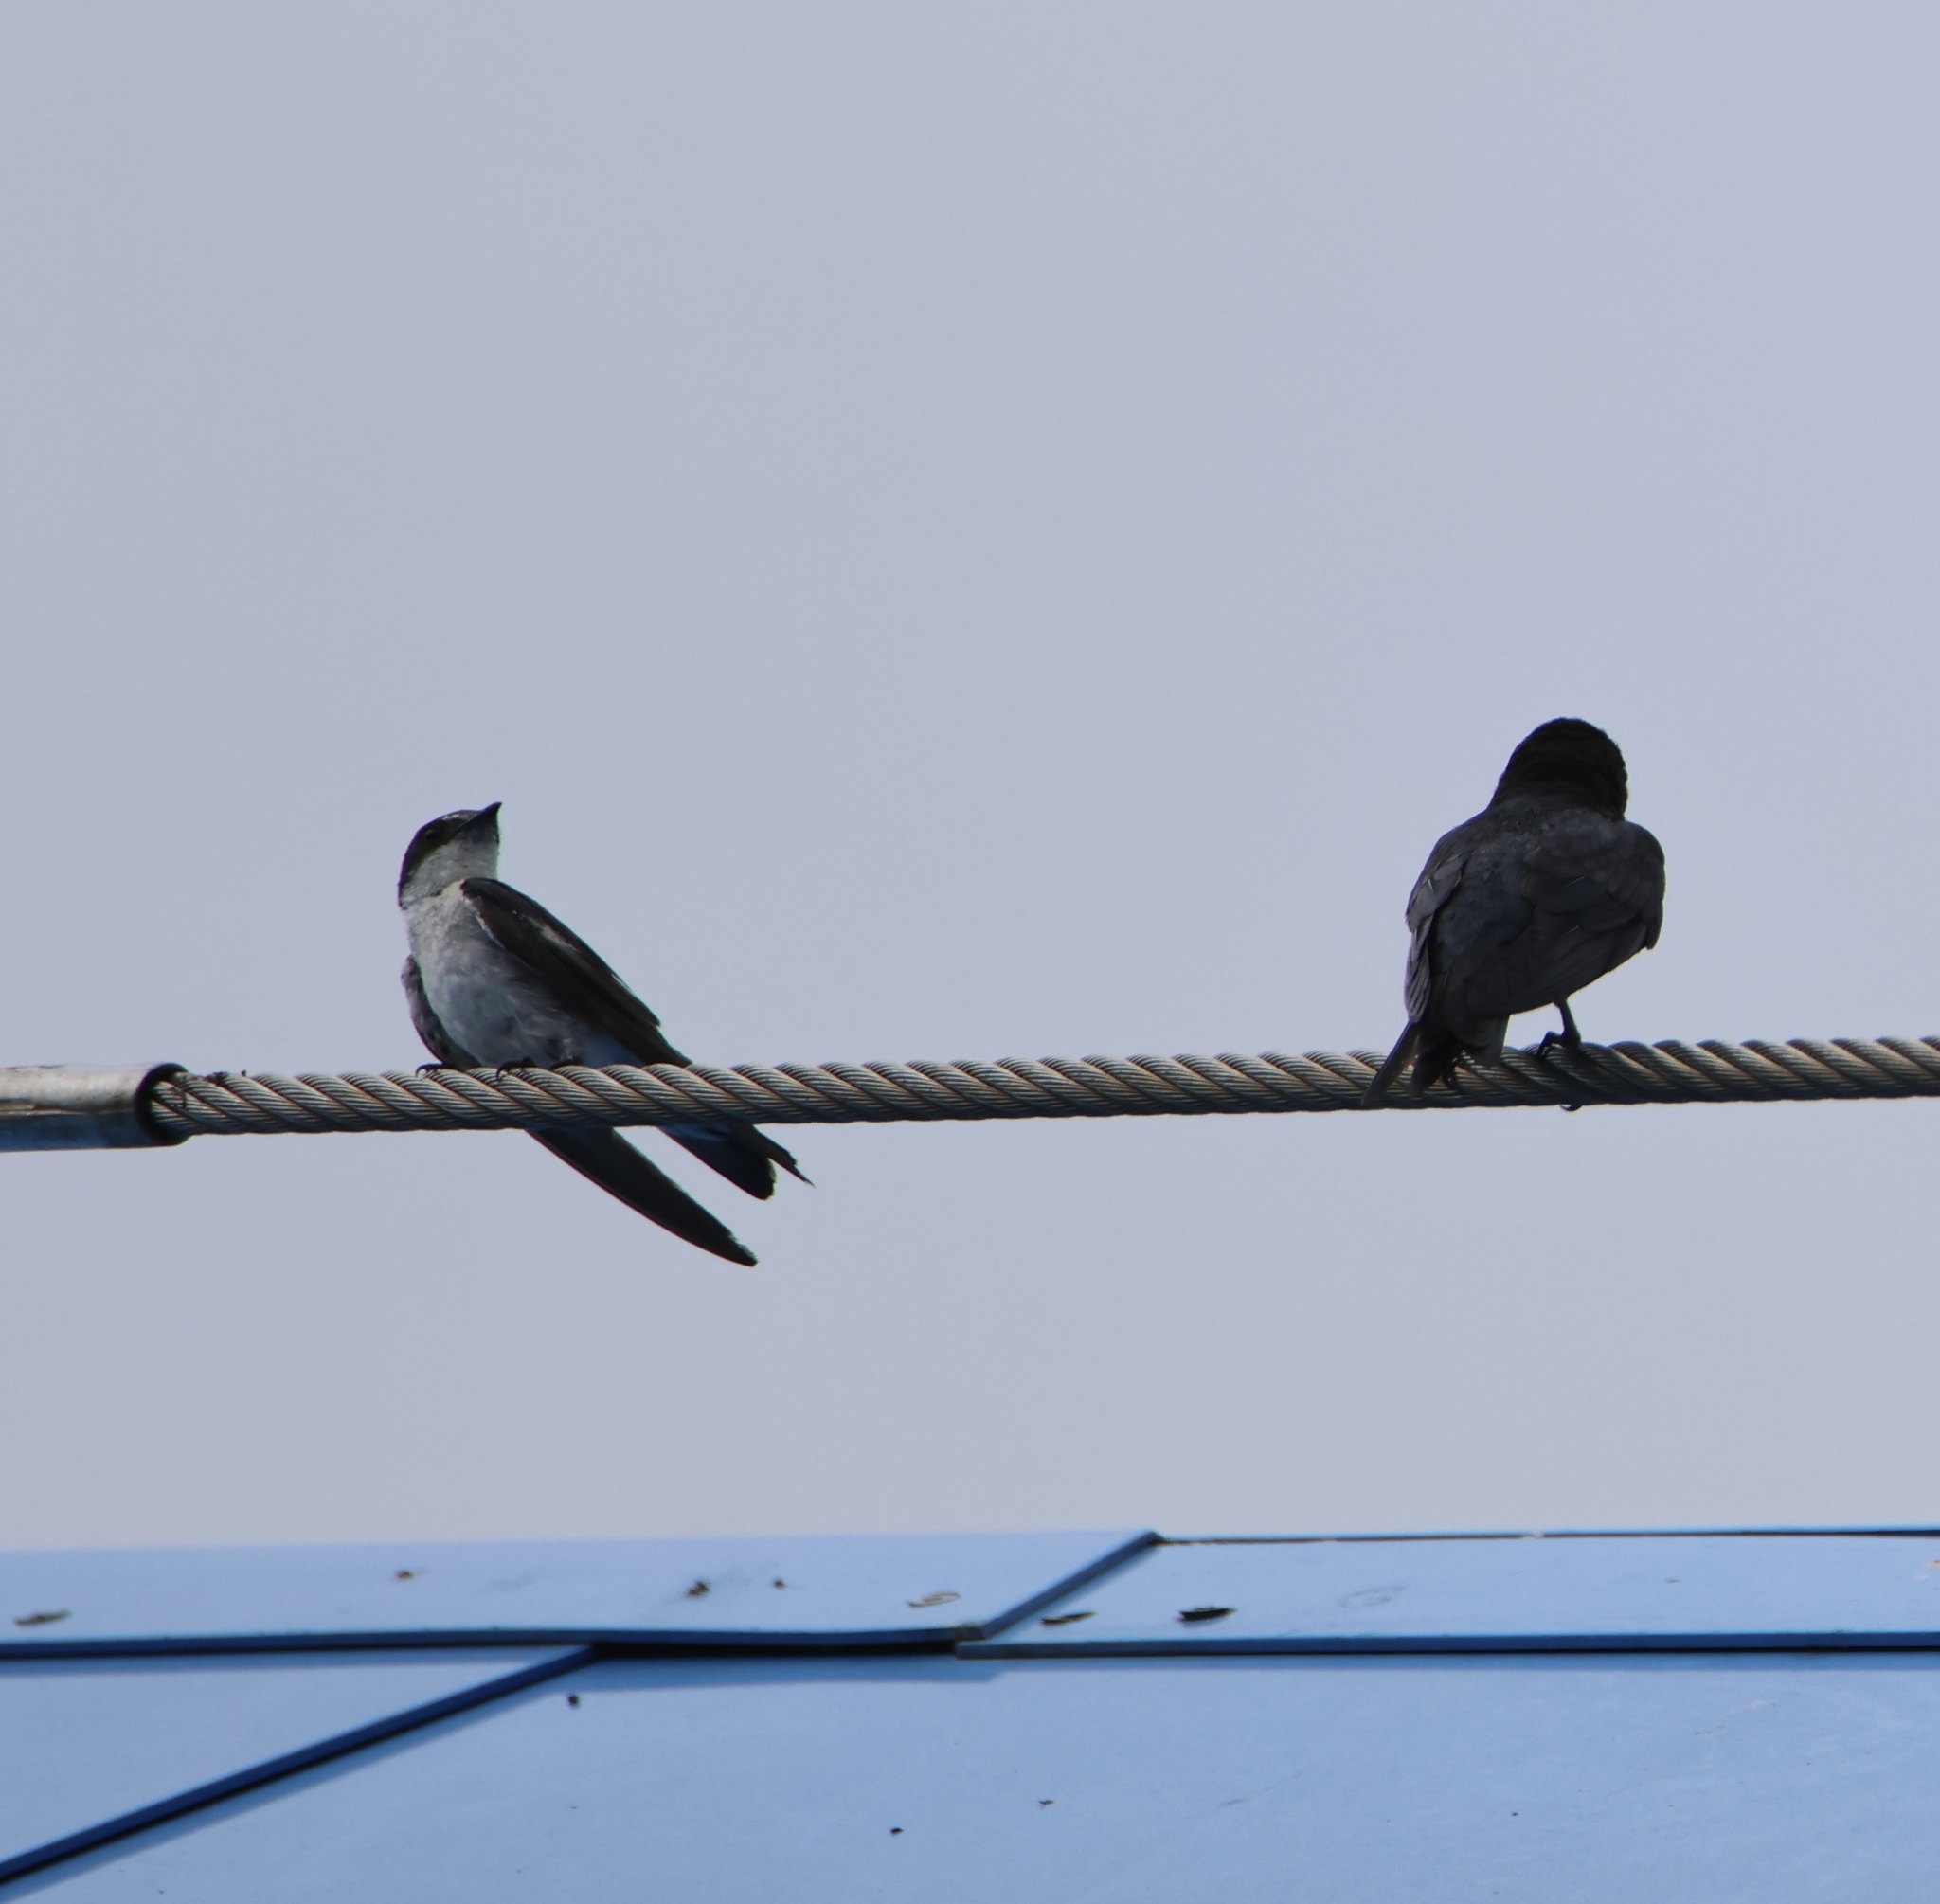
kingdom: Animalia
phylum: Chordata
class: Aves
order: Passeriformes
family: Hirundinidae
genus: Tachycineta
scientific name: Tachycineta albilinea
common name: Mangrove swallow
